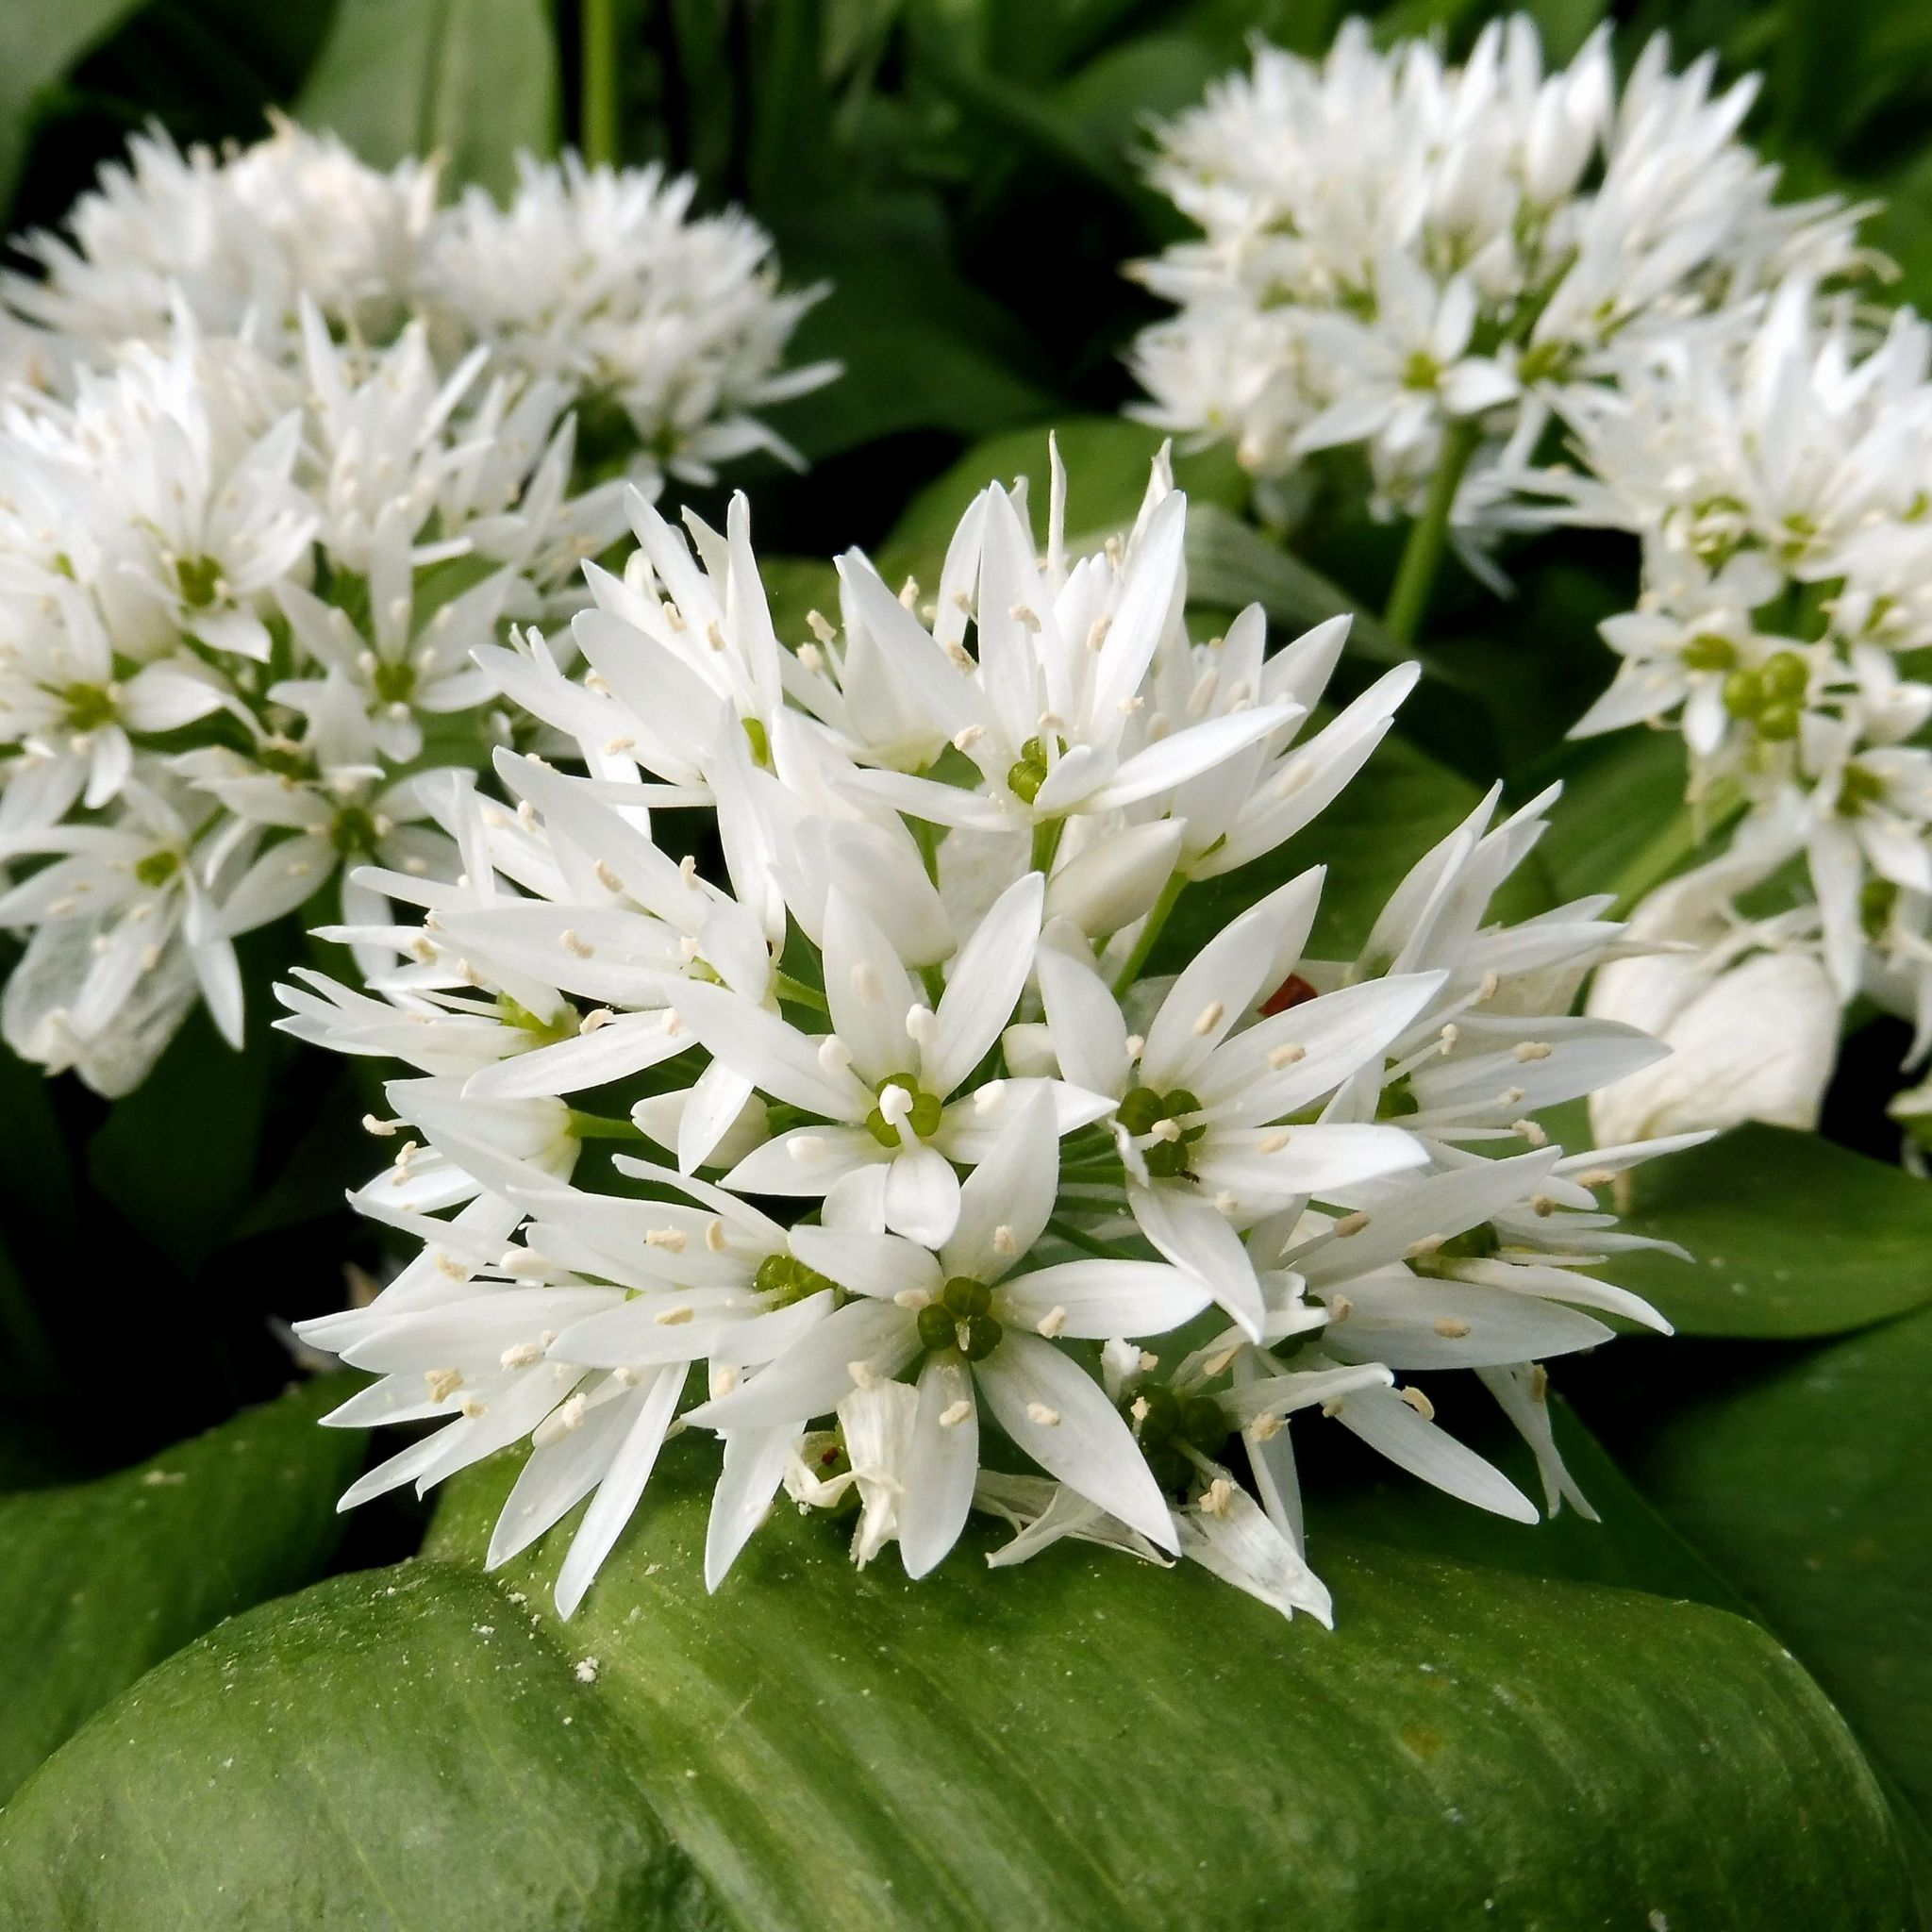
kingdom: Plantae
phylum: Tracheophyta
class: Liliopsida
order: Asparagales
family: Amaryllidaceae
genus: Allium
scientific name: Allium ursinum
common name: Ramsons
